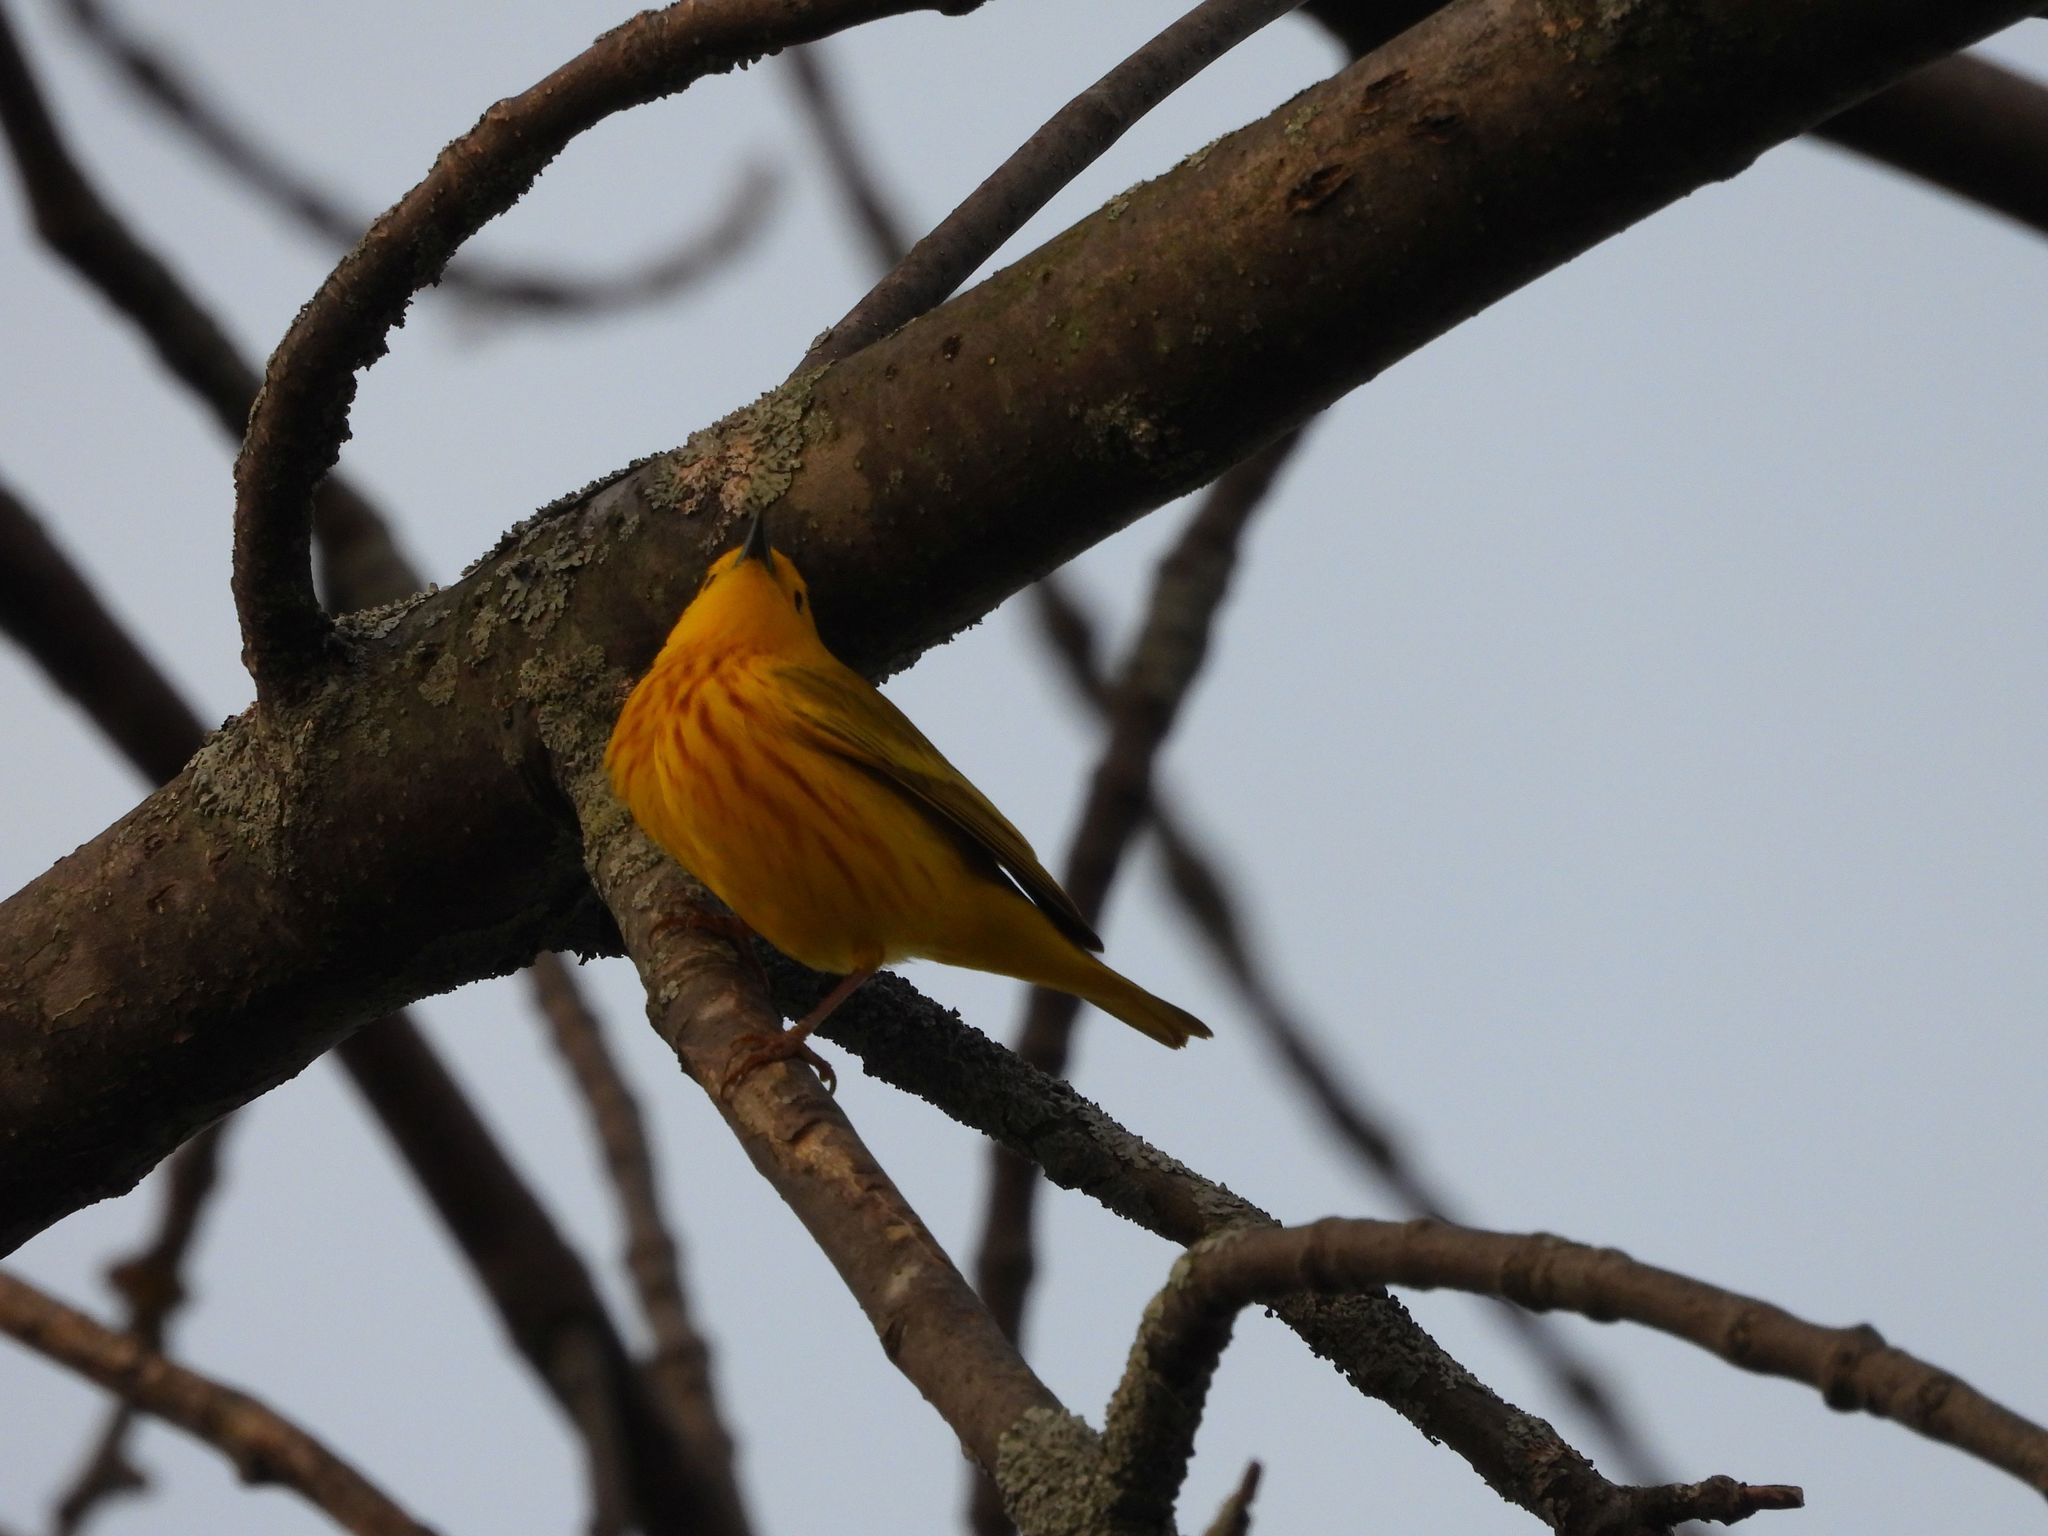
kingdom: Animalia
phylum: Chordata
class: Aves
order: Passeriformes
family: Parulidae
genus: Setophaga
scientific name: Setophaga petechia
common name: Yellow warbler
